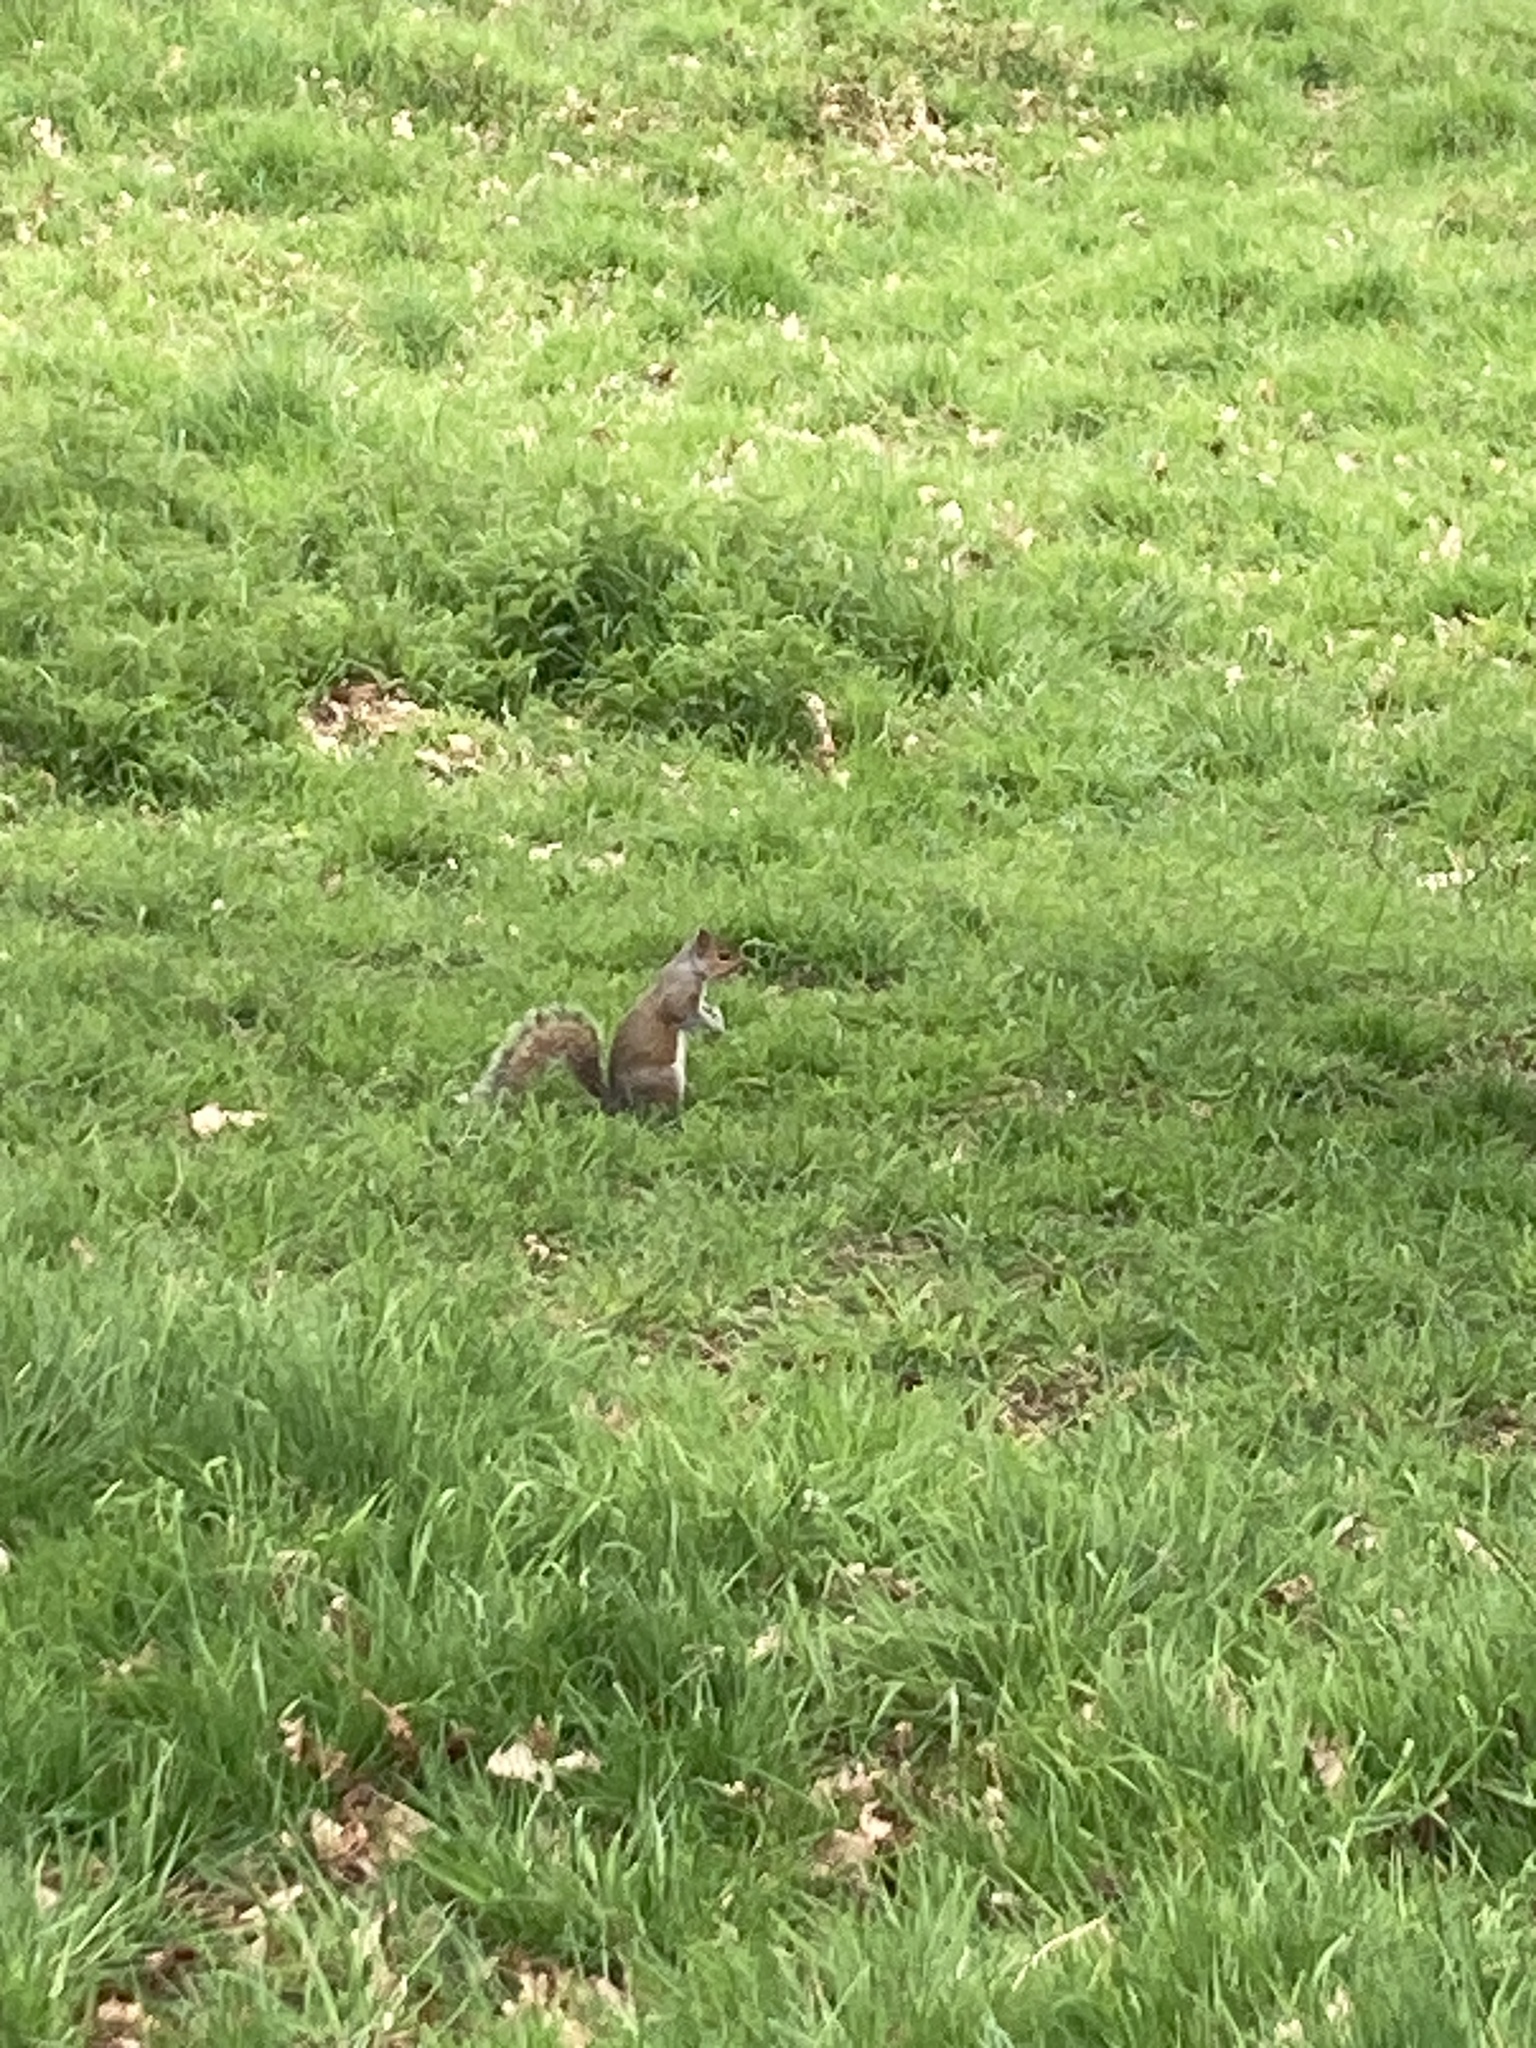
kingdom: Animalia
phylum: Chordata
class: Mammalia
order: Rodentia
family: Sciuridae
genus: Sciurus
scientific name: Sciurus carolinensis
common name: Eastern gray squirrel
